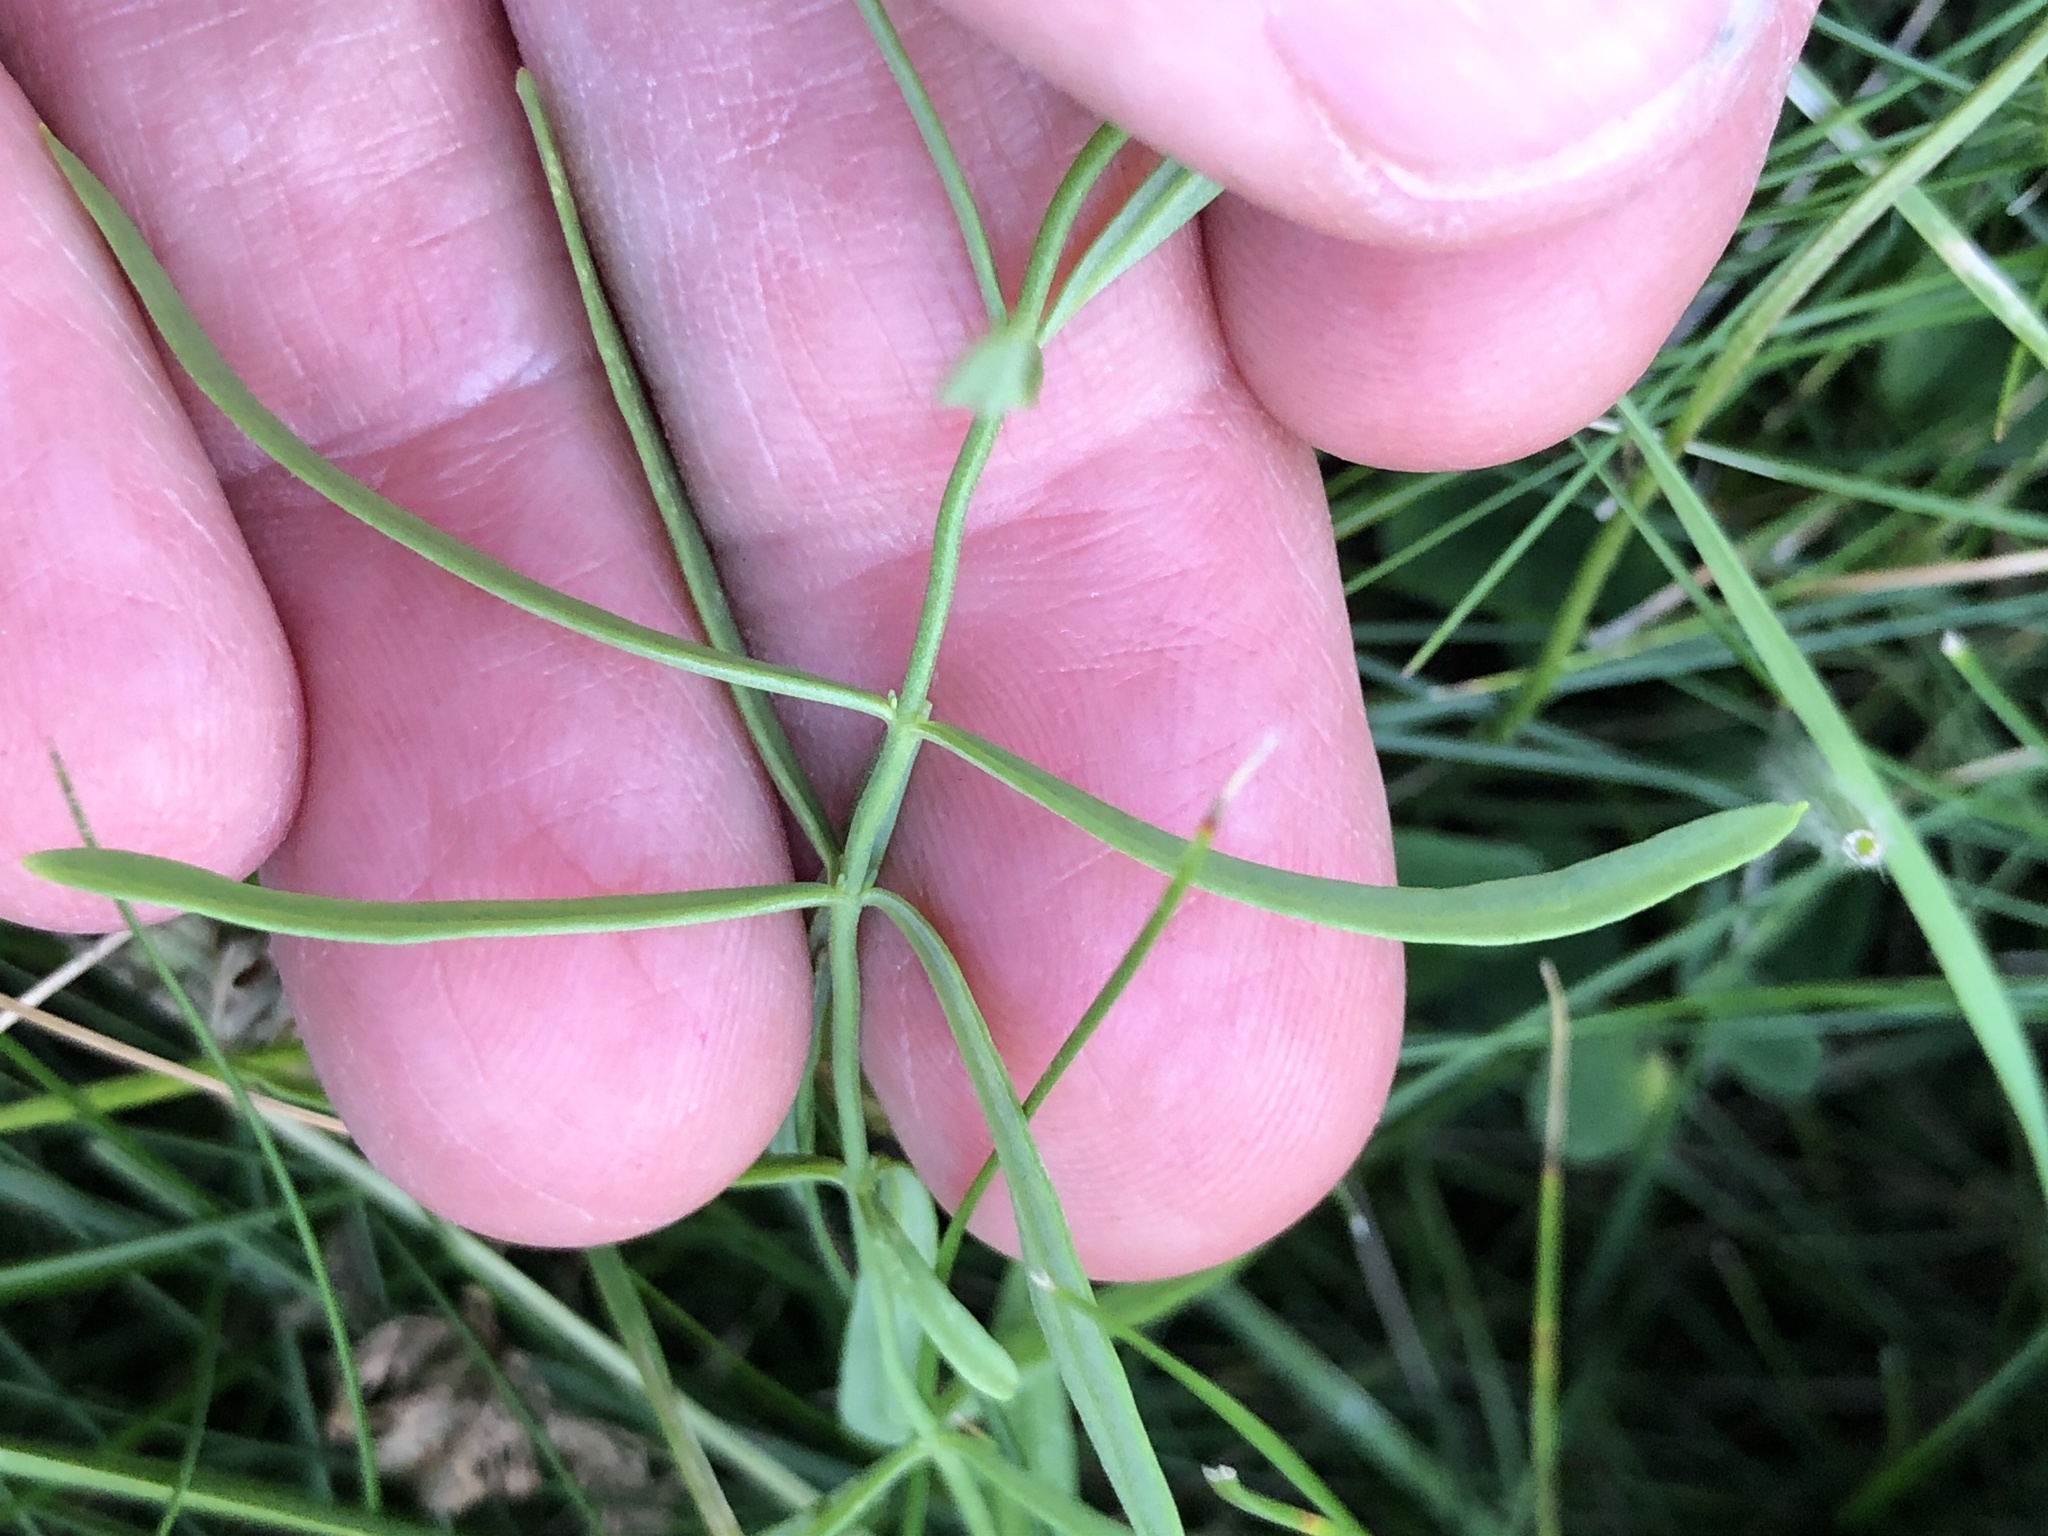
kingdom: Plantae
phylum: Tracheophyta
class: Magnoliopsida
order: Lamiales
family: Plantaginaceae
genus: Linaria
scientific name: Linaria vulgaris
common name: Butter and eggs
